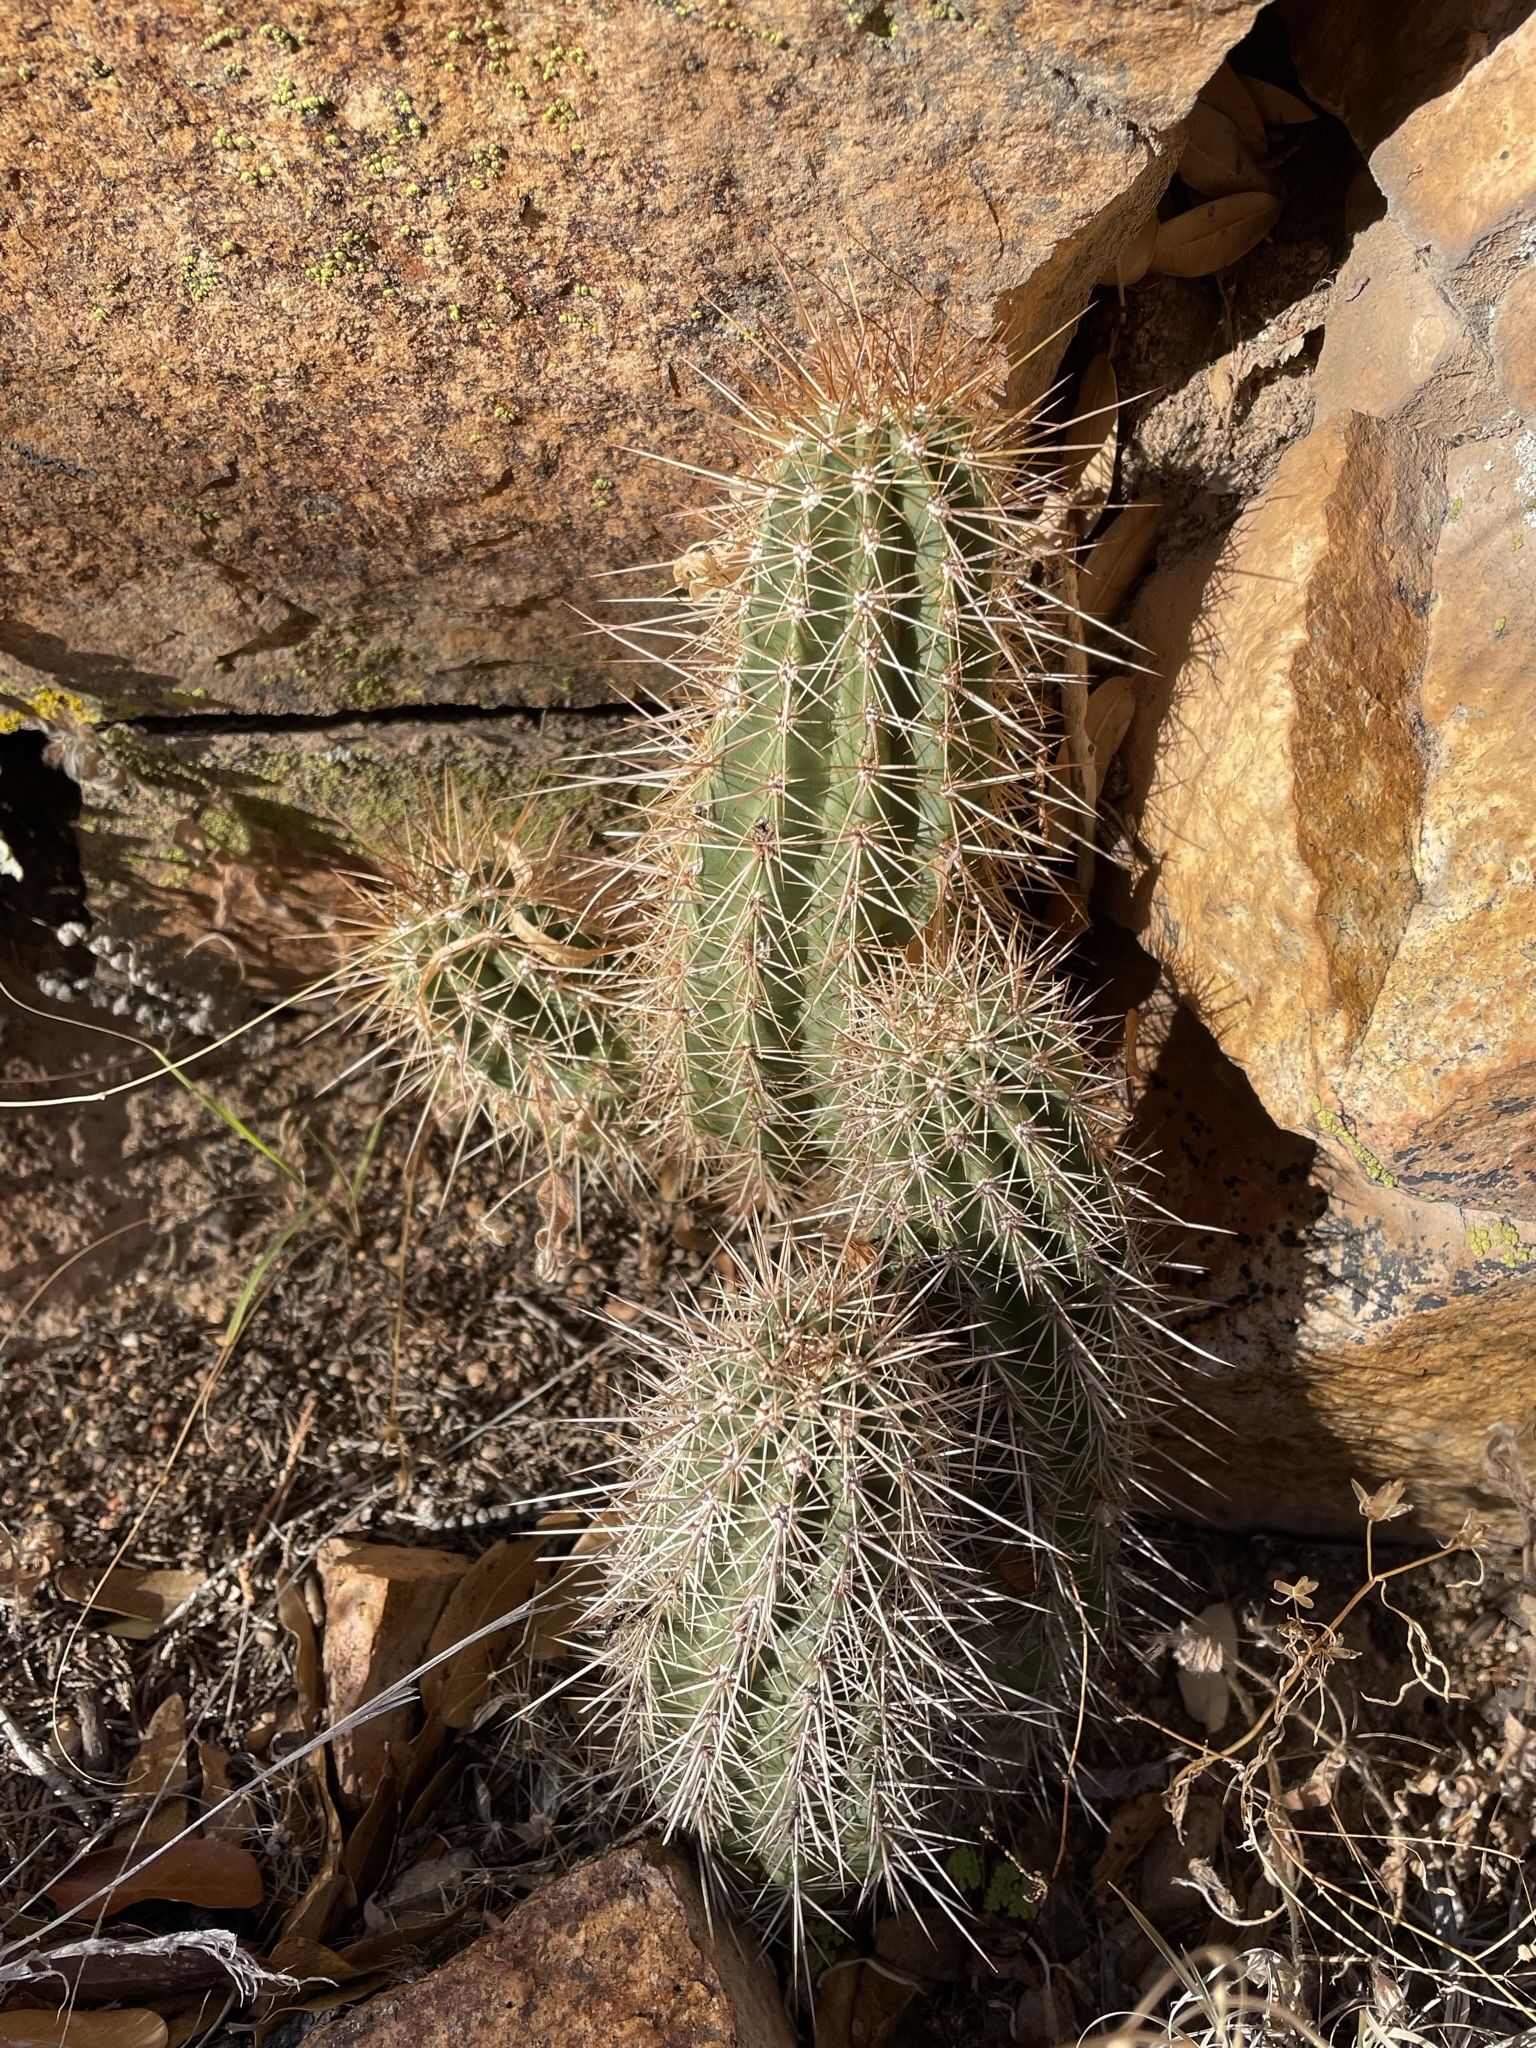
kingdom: Plantae
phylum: Tracheophyta
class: Magnoliopsida
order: Caryophyllales
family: Cactaceae
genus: Echinocereus
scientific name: Echinocereus coccineus
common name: Scarlet hedgehog cactus
